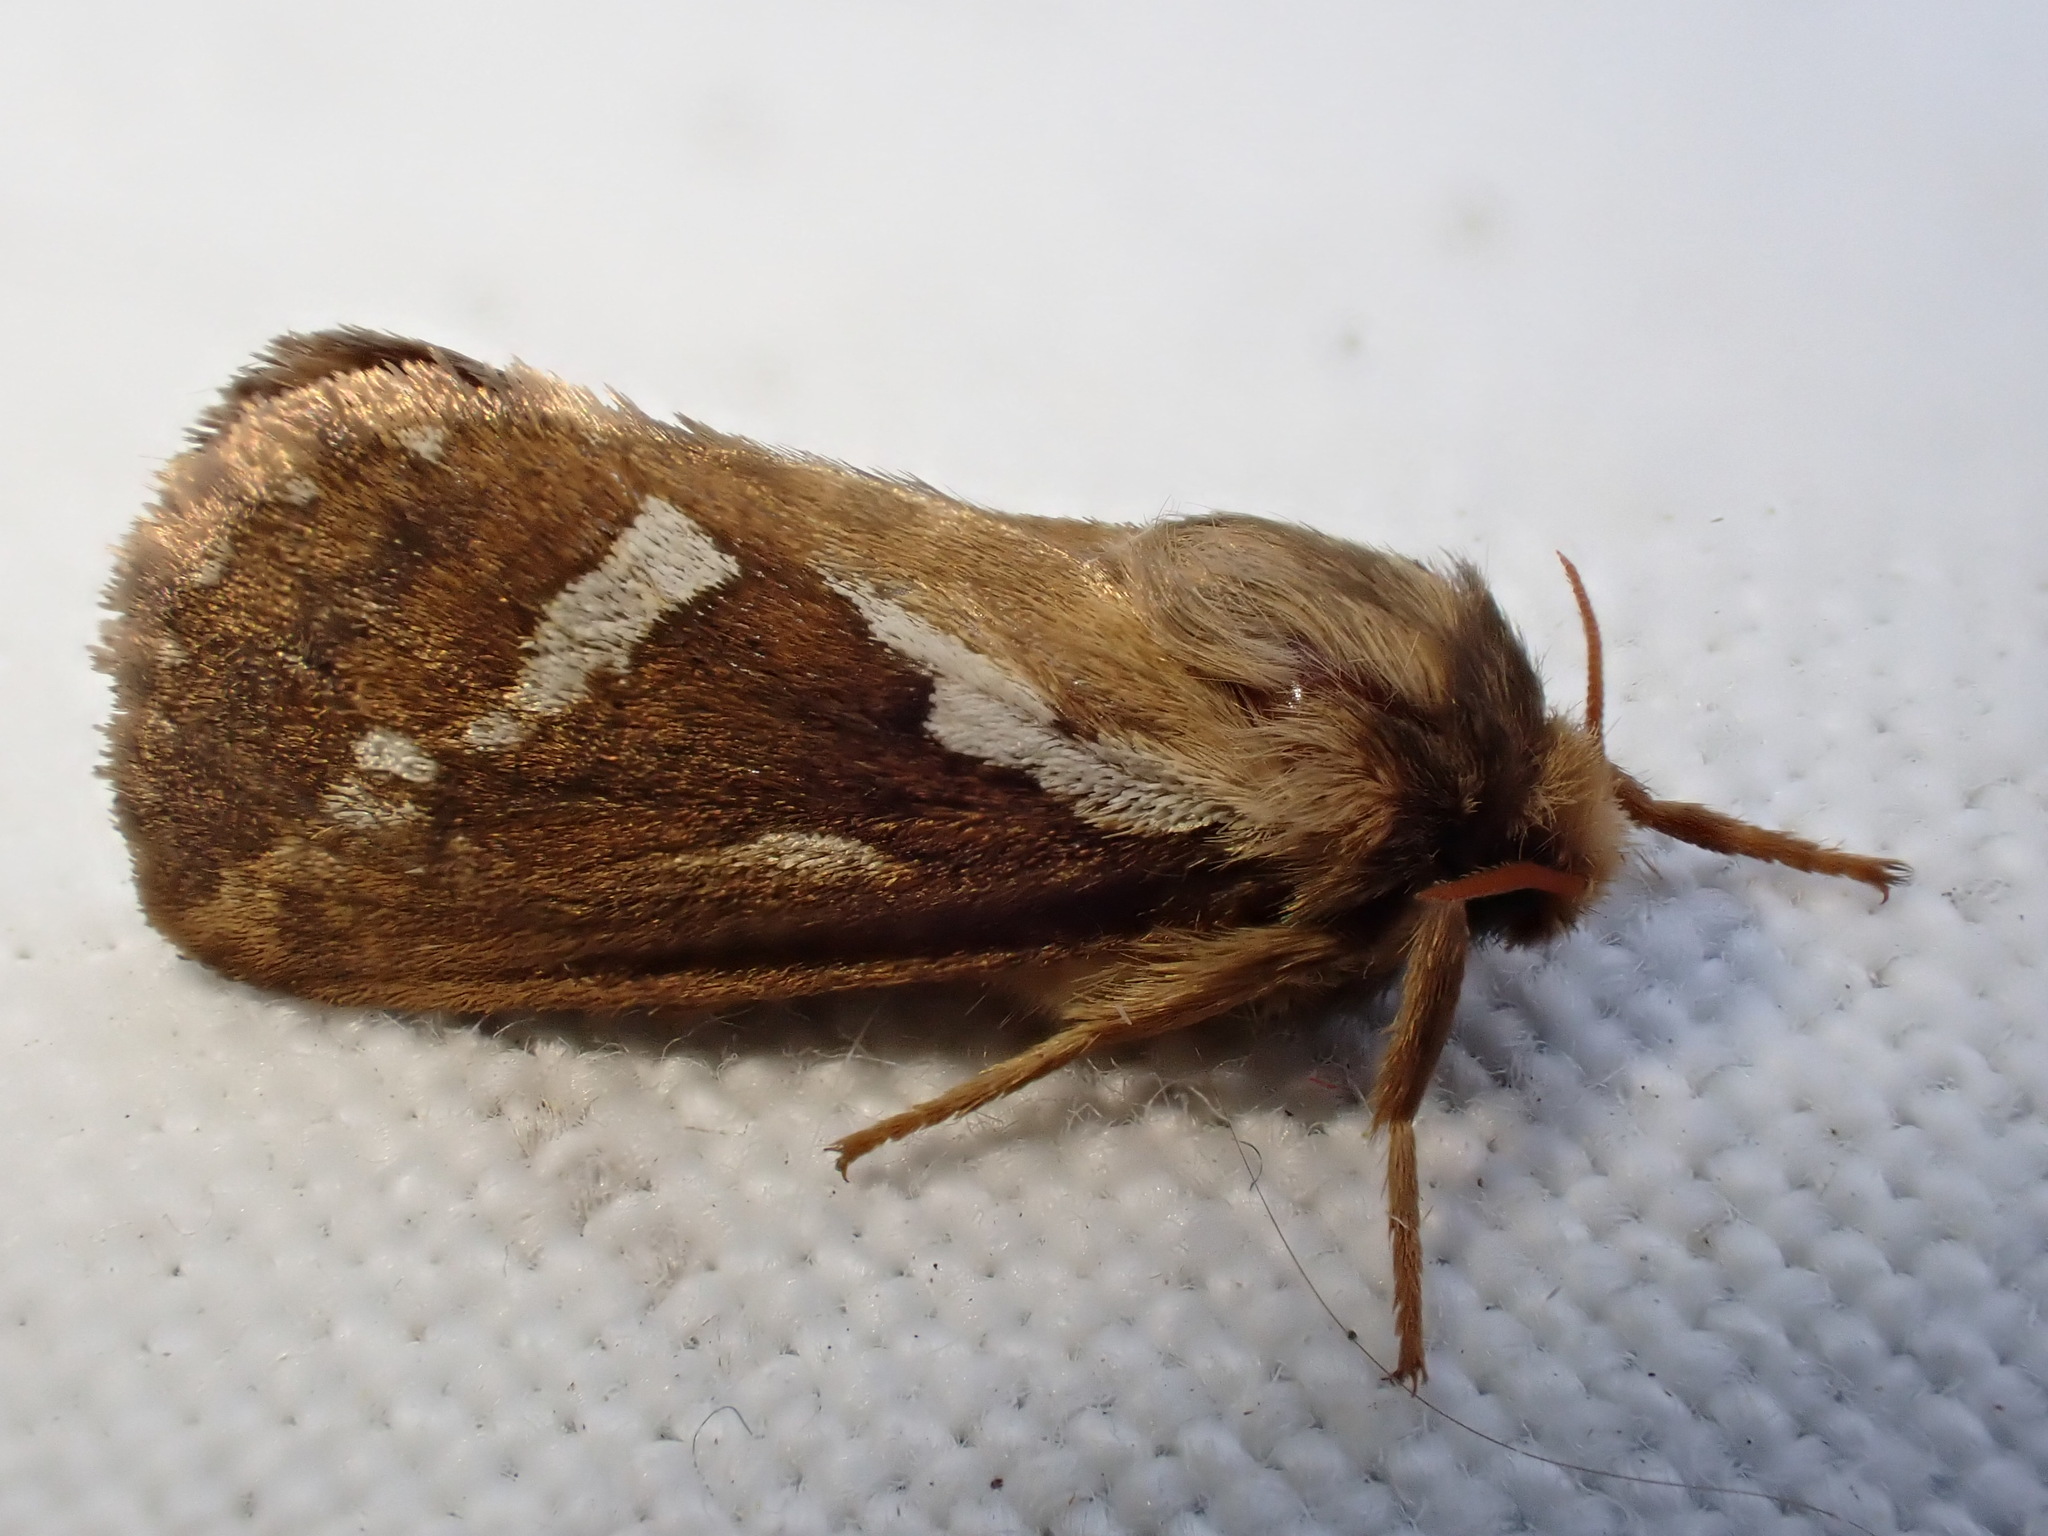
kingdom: Animalia
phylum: Arthropoda
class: Insecta
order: Lepidoptera
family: Hepialidae
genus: Korscheltellus
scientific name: Korscheltellus lupulina
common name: Common swift
